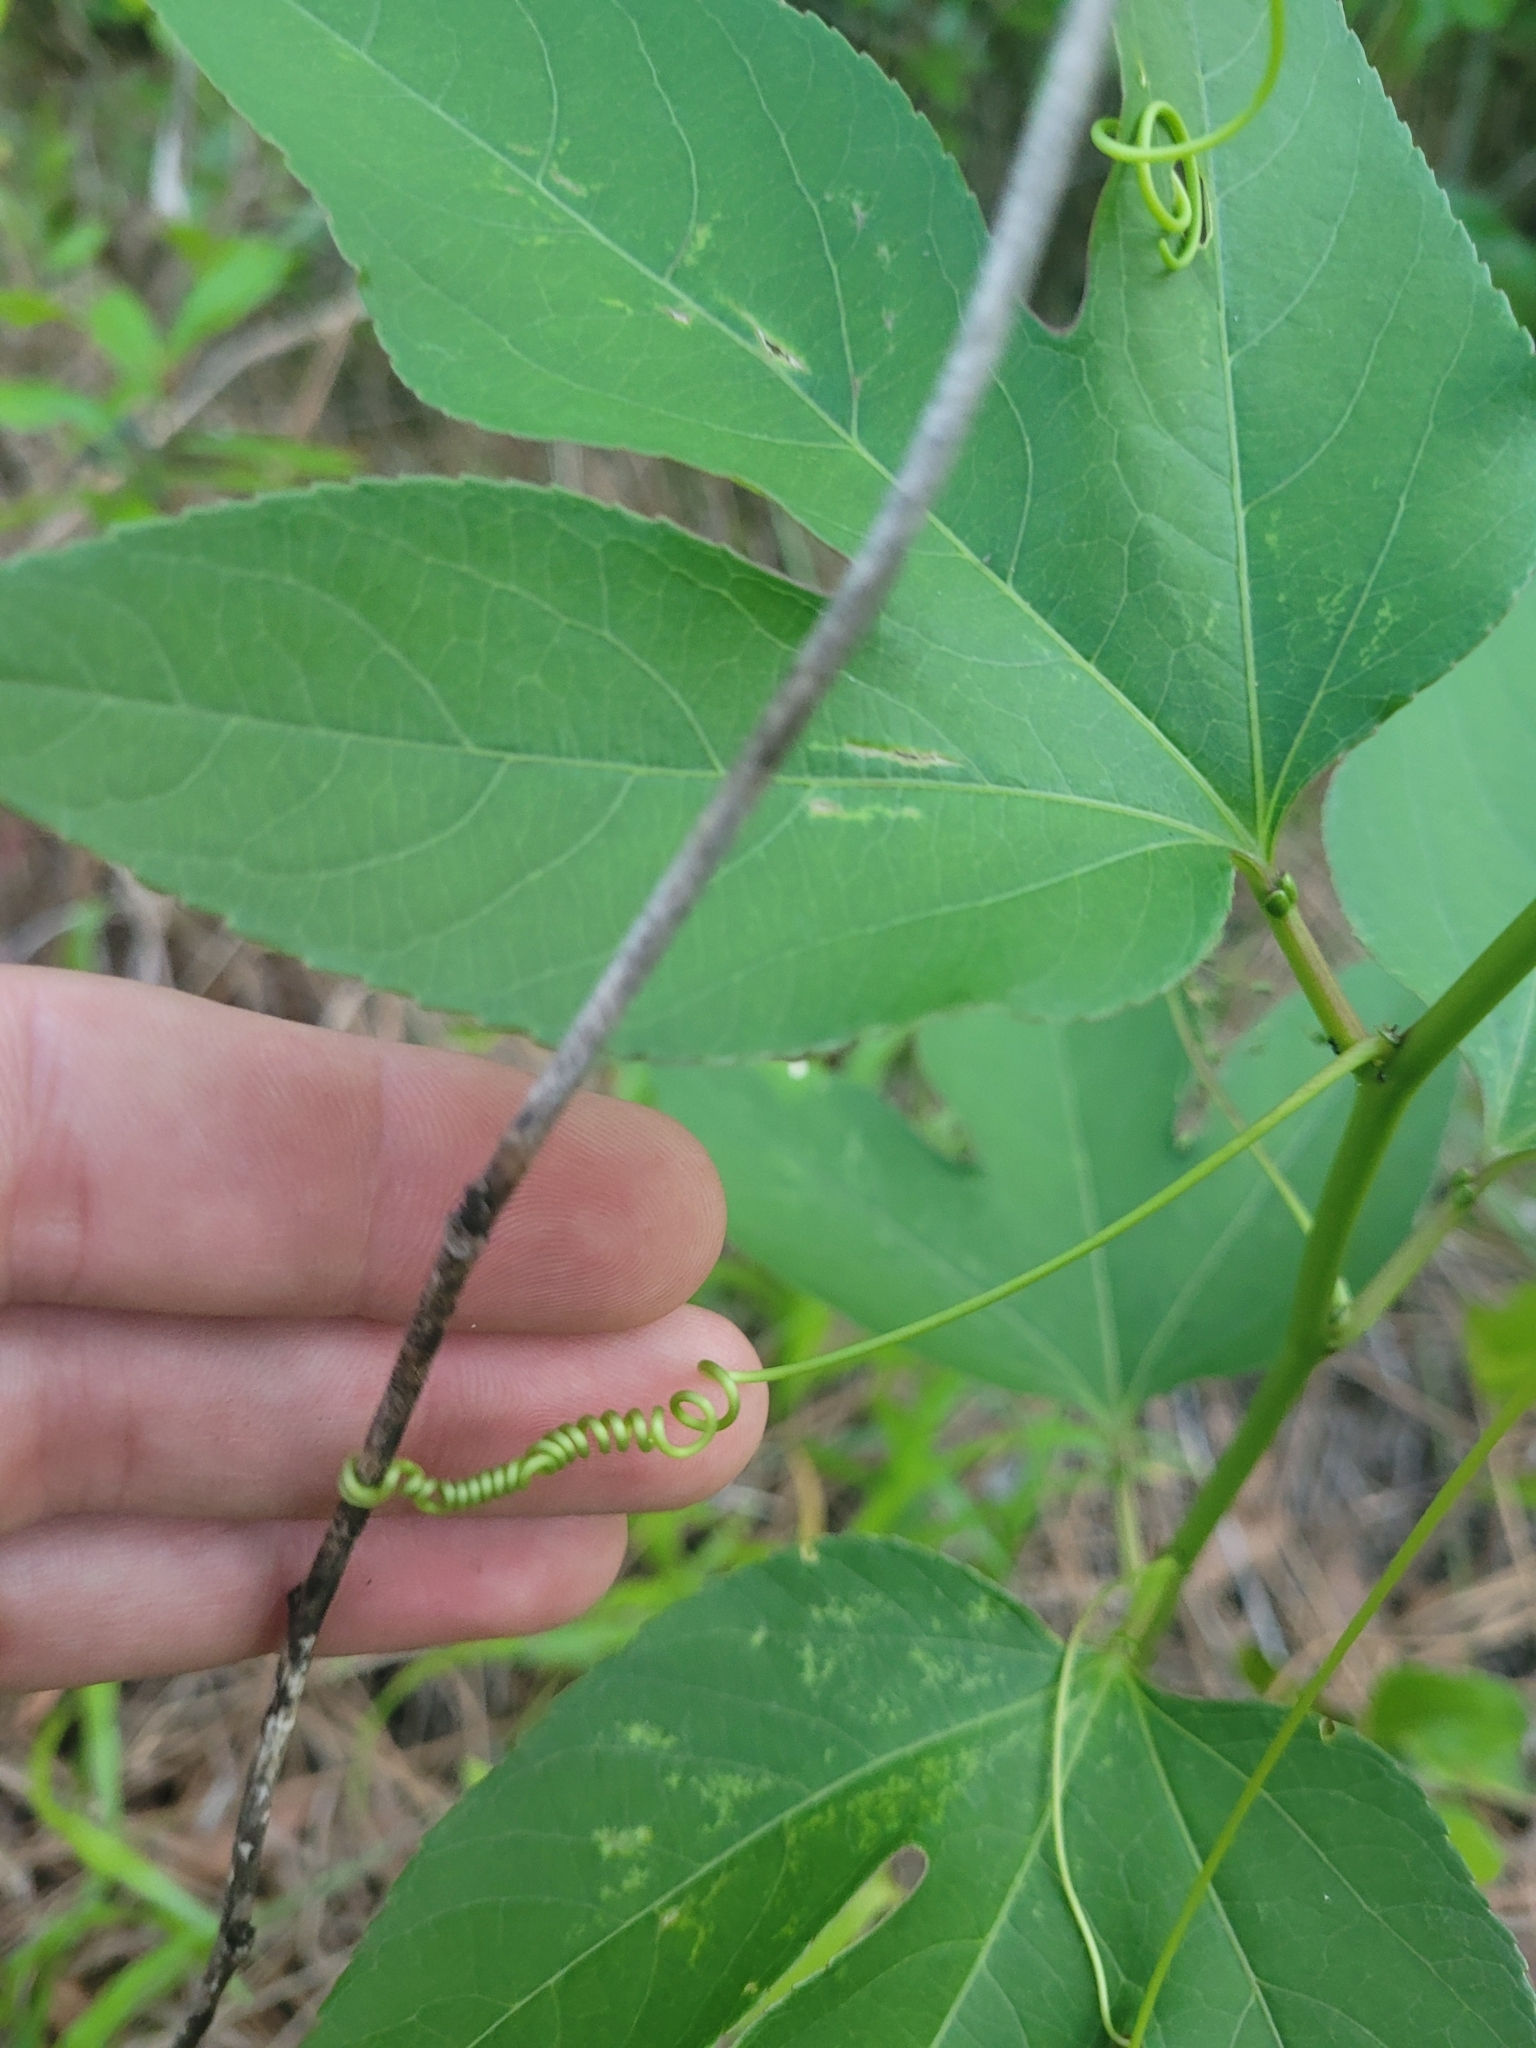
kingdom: Plantae
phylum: Tracheophyta
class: Magnoliopsida
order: Malpighiales
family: Passifloraceae
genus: Passiflora
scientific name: Passiflora incarnata
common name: Apricot-vine
